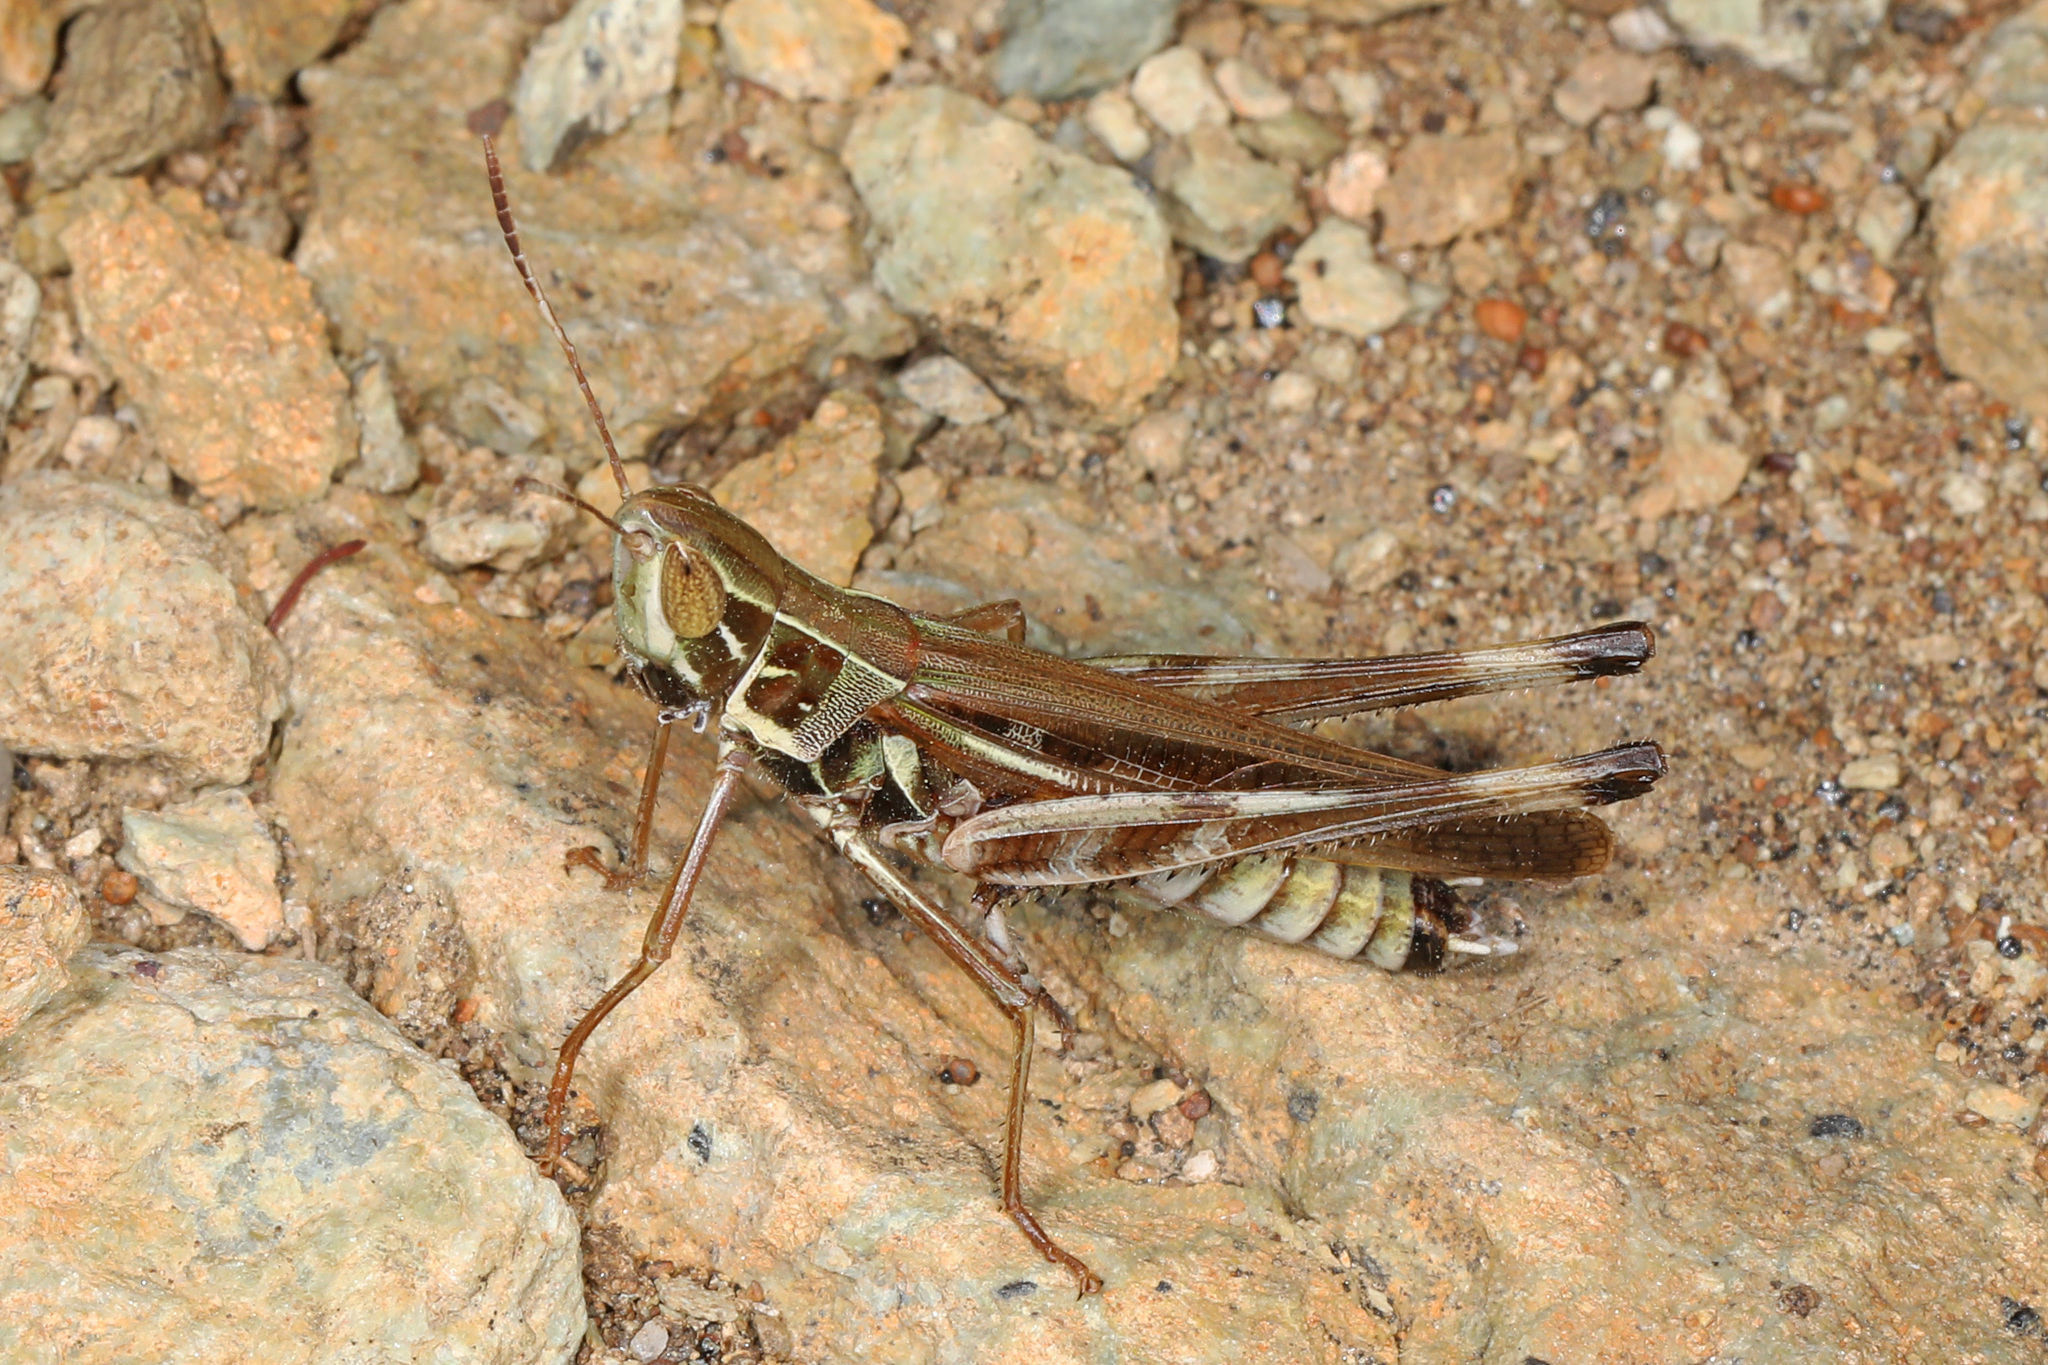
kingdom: Animalia
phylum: Arthropoda
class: Insecta
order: Orthoptera
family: Acrididae
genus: Syrbula
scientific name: Syrbula admirabilis
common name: Handsome grasshopper
